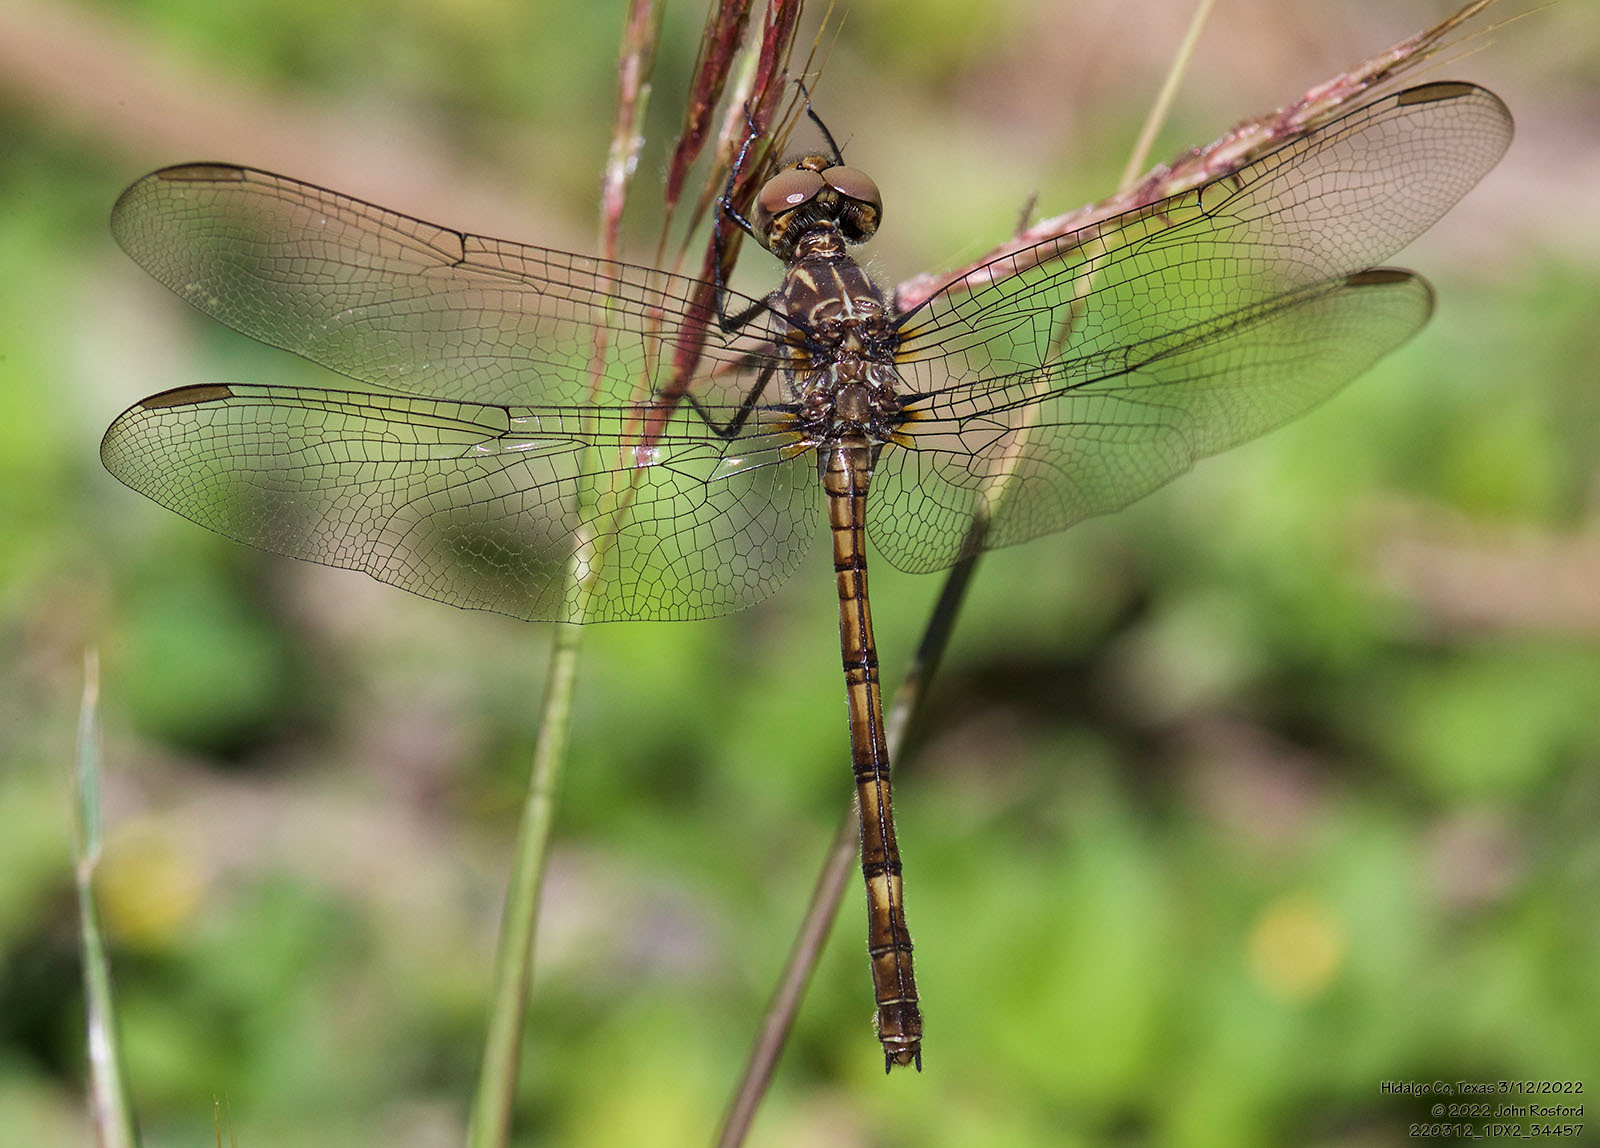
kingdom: Animalia
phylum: Arthropoda
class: Insecta
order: Odonata
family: Libellulidae
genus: Dythemis
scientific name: Dythemis nigrescens
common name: Black setwing
